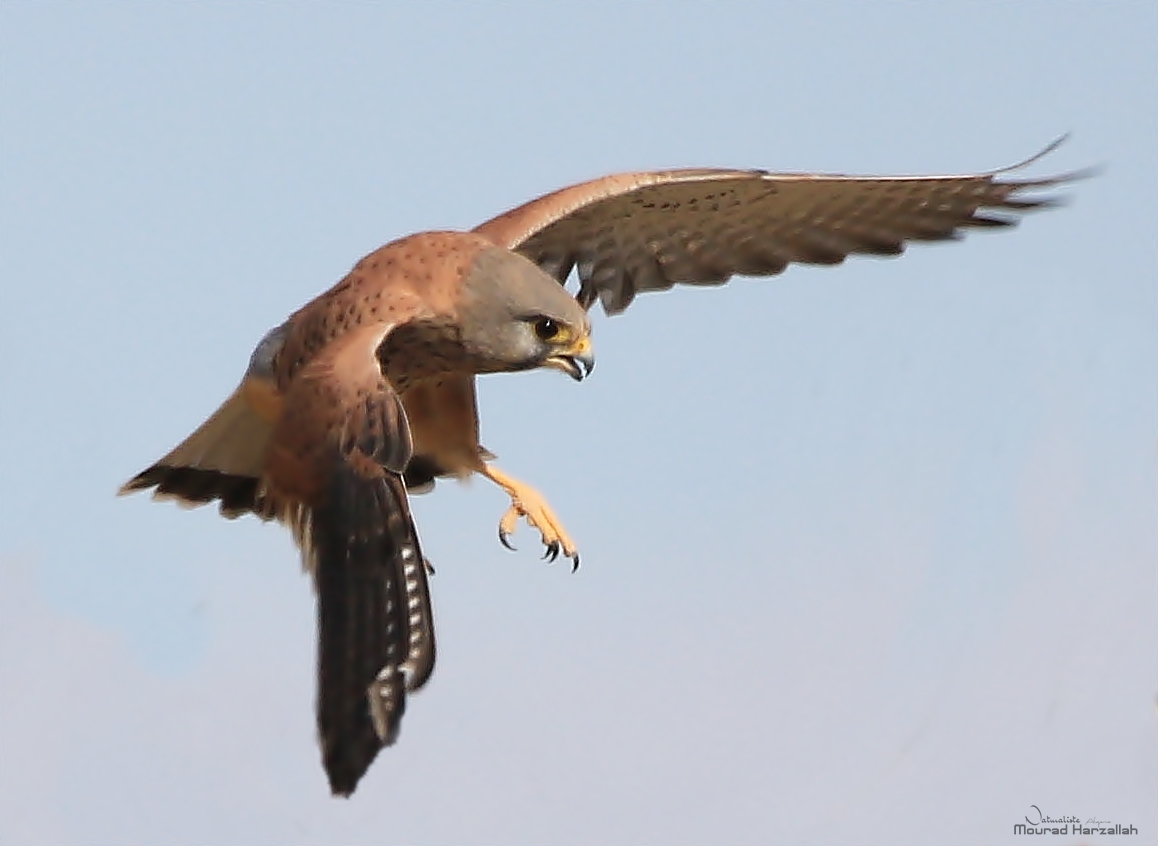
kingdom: Animalia
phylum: Chordata
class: Aves
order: Falconiformes
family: Falconidae
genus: Falco
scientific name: Falco tinnunculus
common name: Common kestrel
